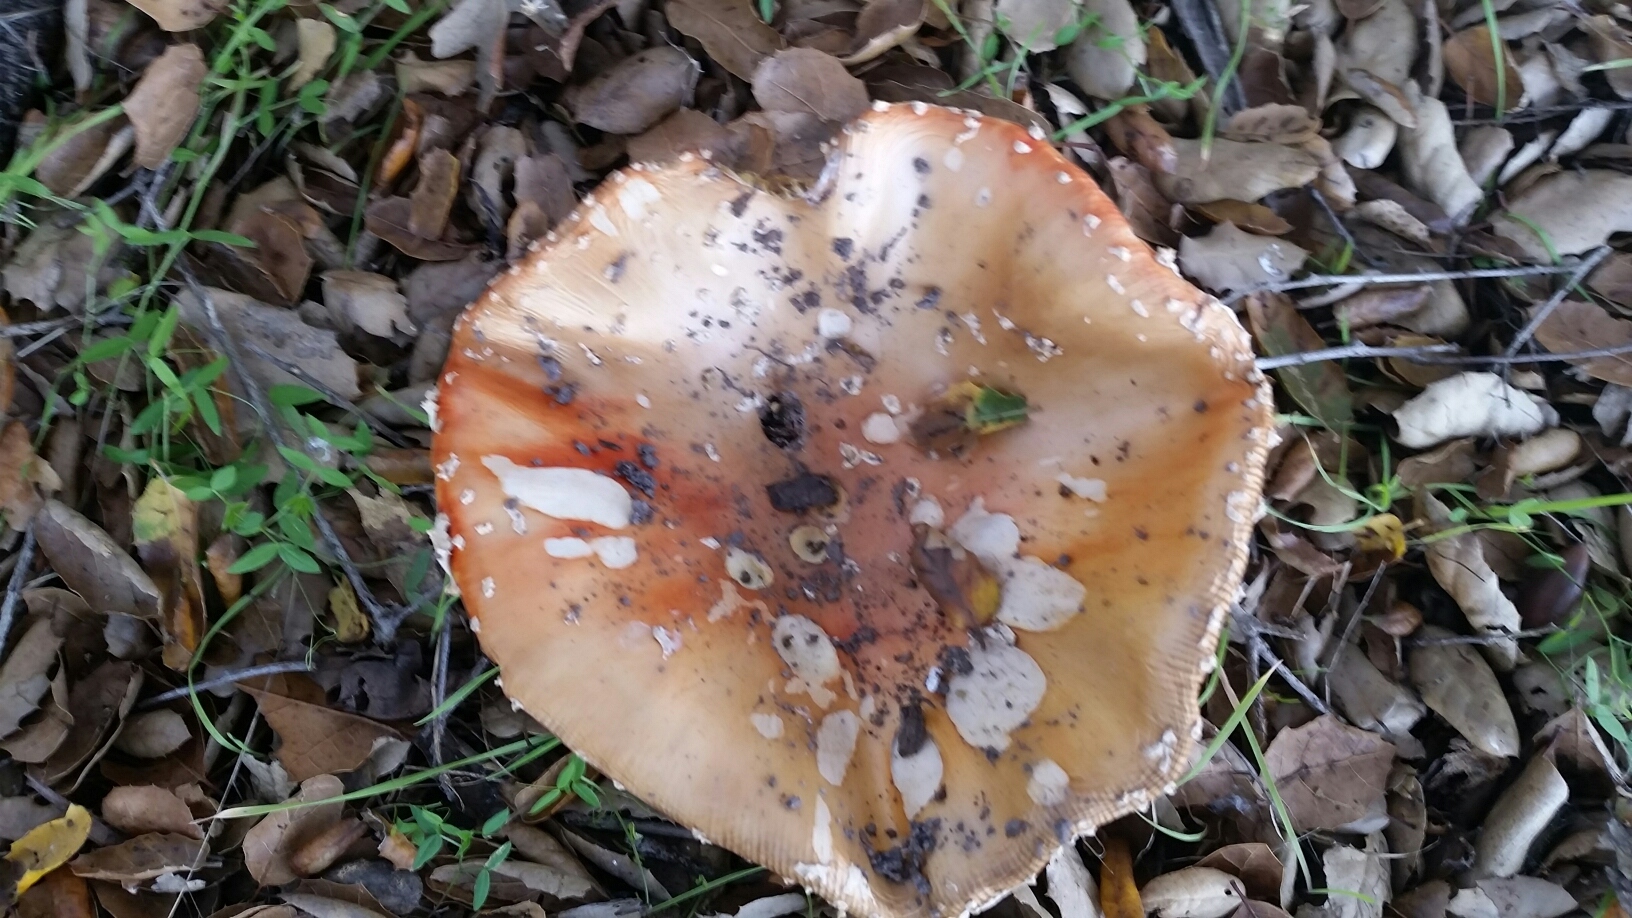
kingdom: Fungi
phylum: Basidiomycota
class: Agaricomycetes
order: Agaricales
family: Amanitaceae
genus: Amanita
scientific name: Amanita muscaria
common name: Fly agaric
